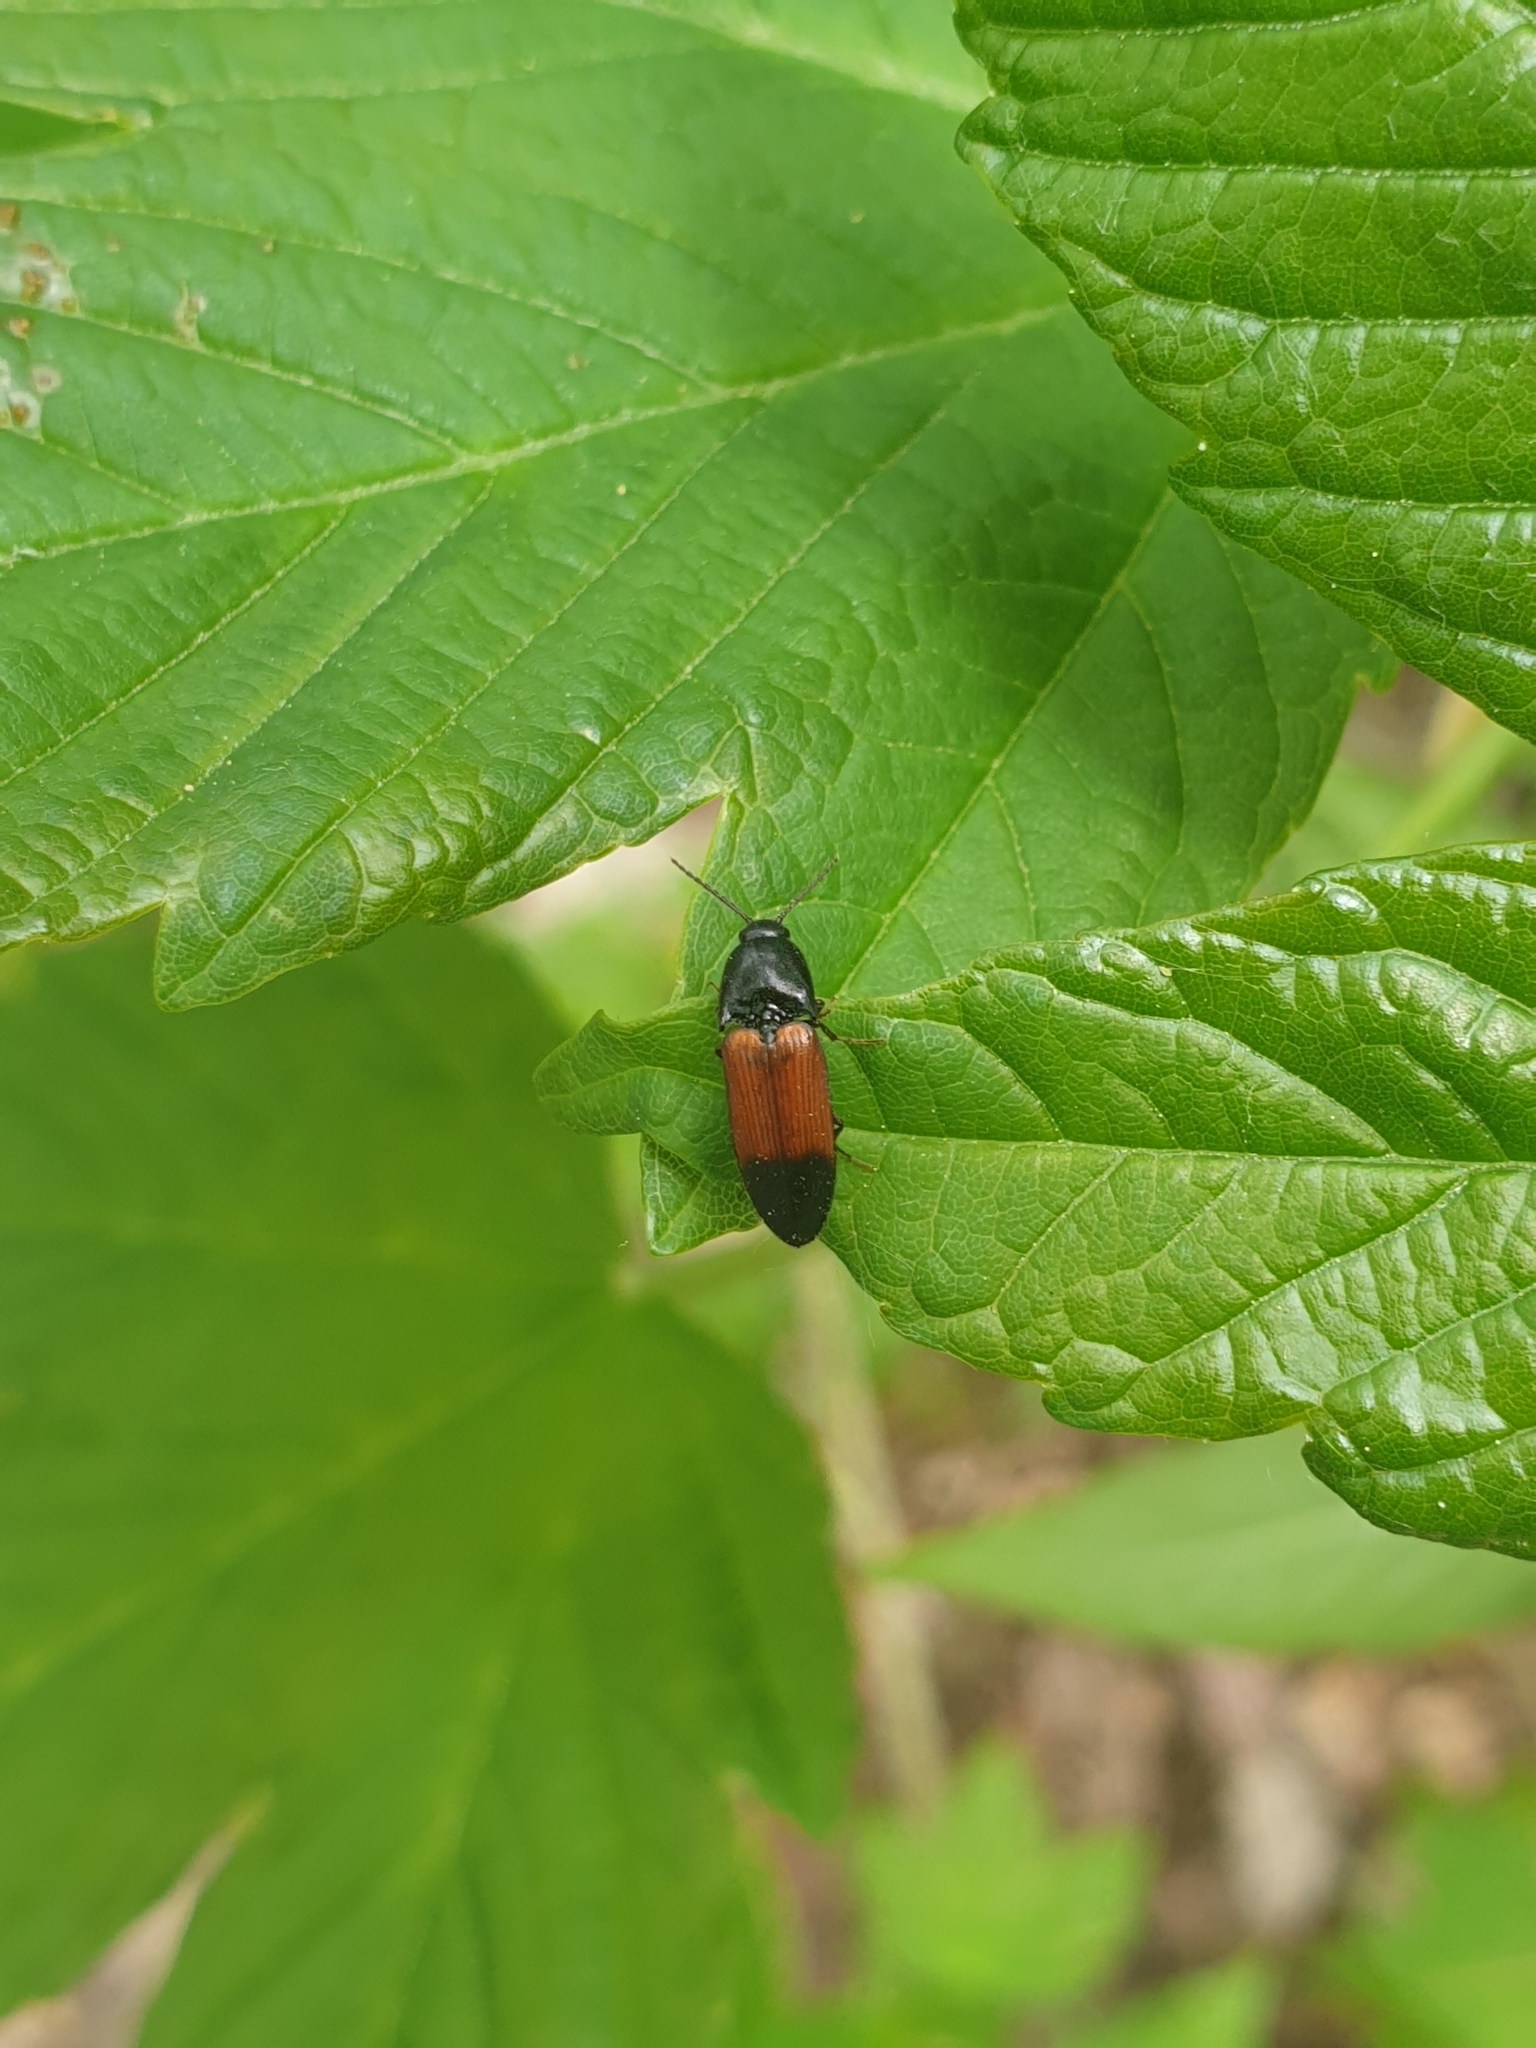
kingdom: Animalia
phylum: Arthropoda
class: Insecta
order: Coleoptera
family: Elateridae
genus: Ampedus
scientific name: Ampedus balteatus
